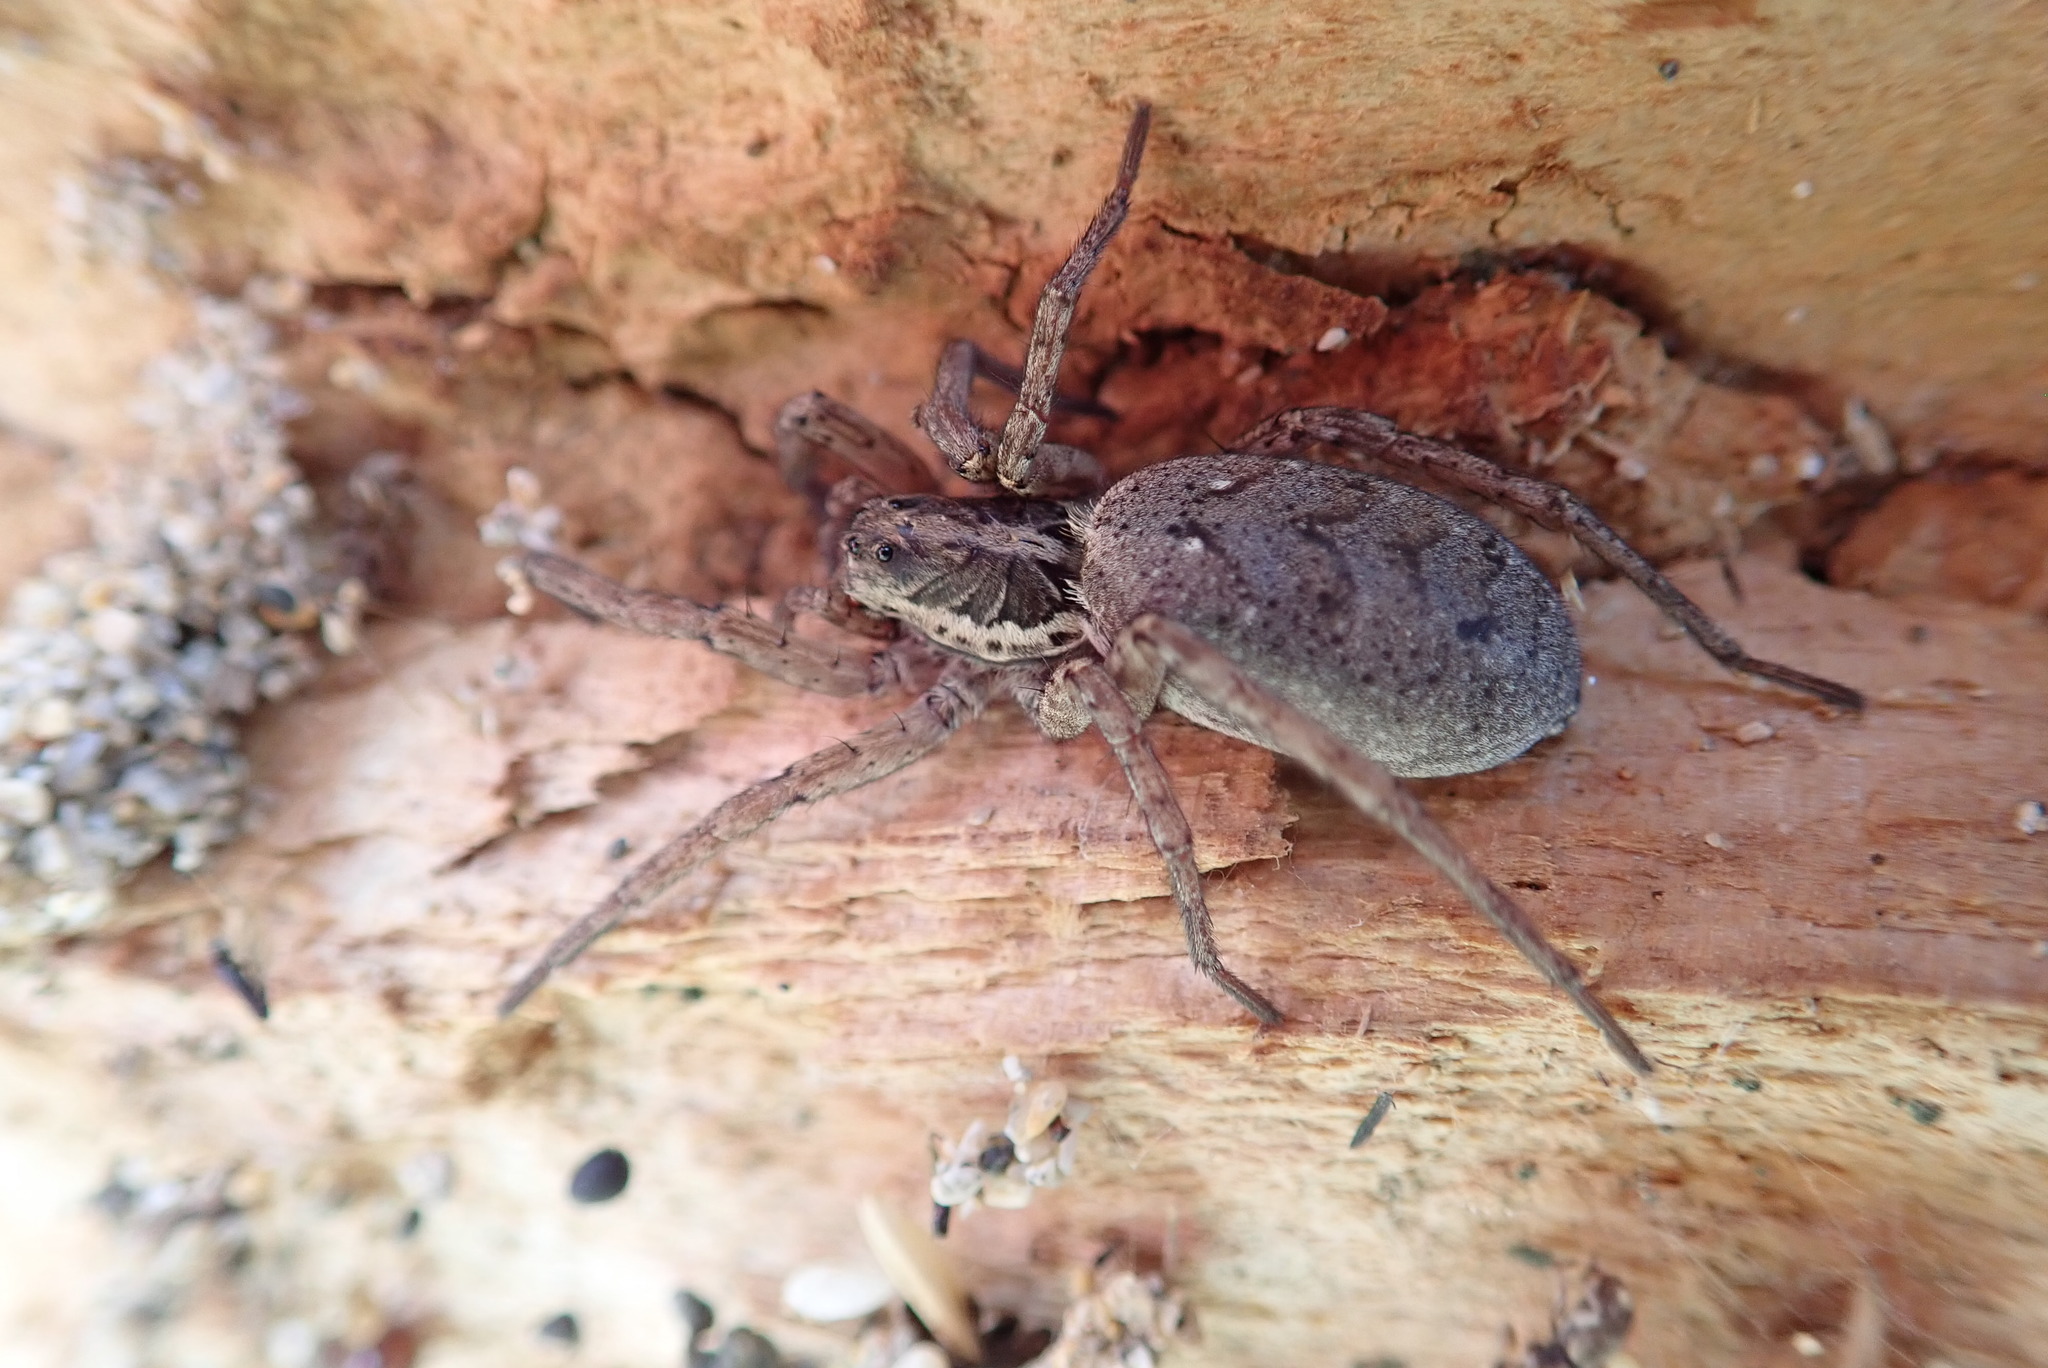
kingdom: Animalia
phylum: Arthropoda
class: Arachnida
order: Araneae
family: Lycosidae
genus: Hogna
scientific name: Hogna crispipes
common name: Wolf spider
